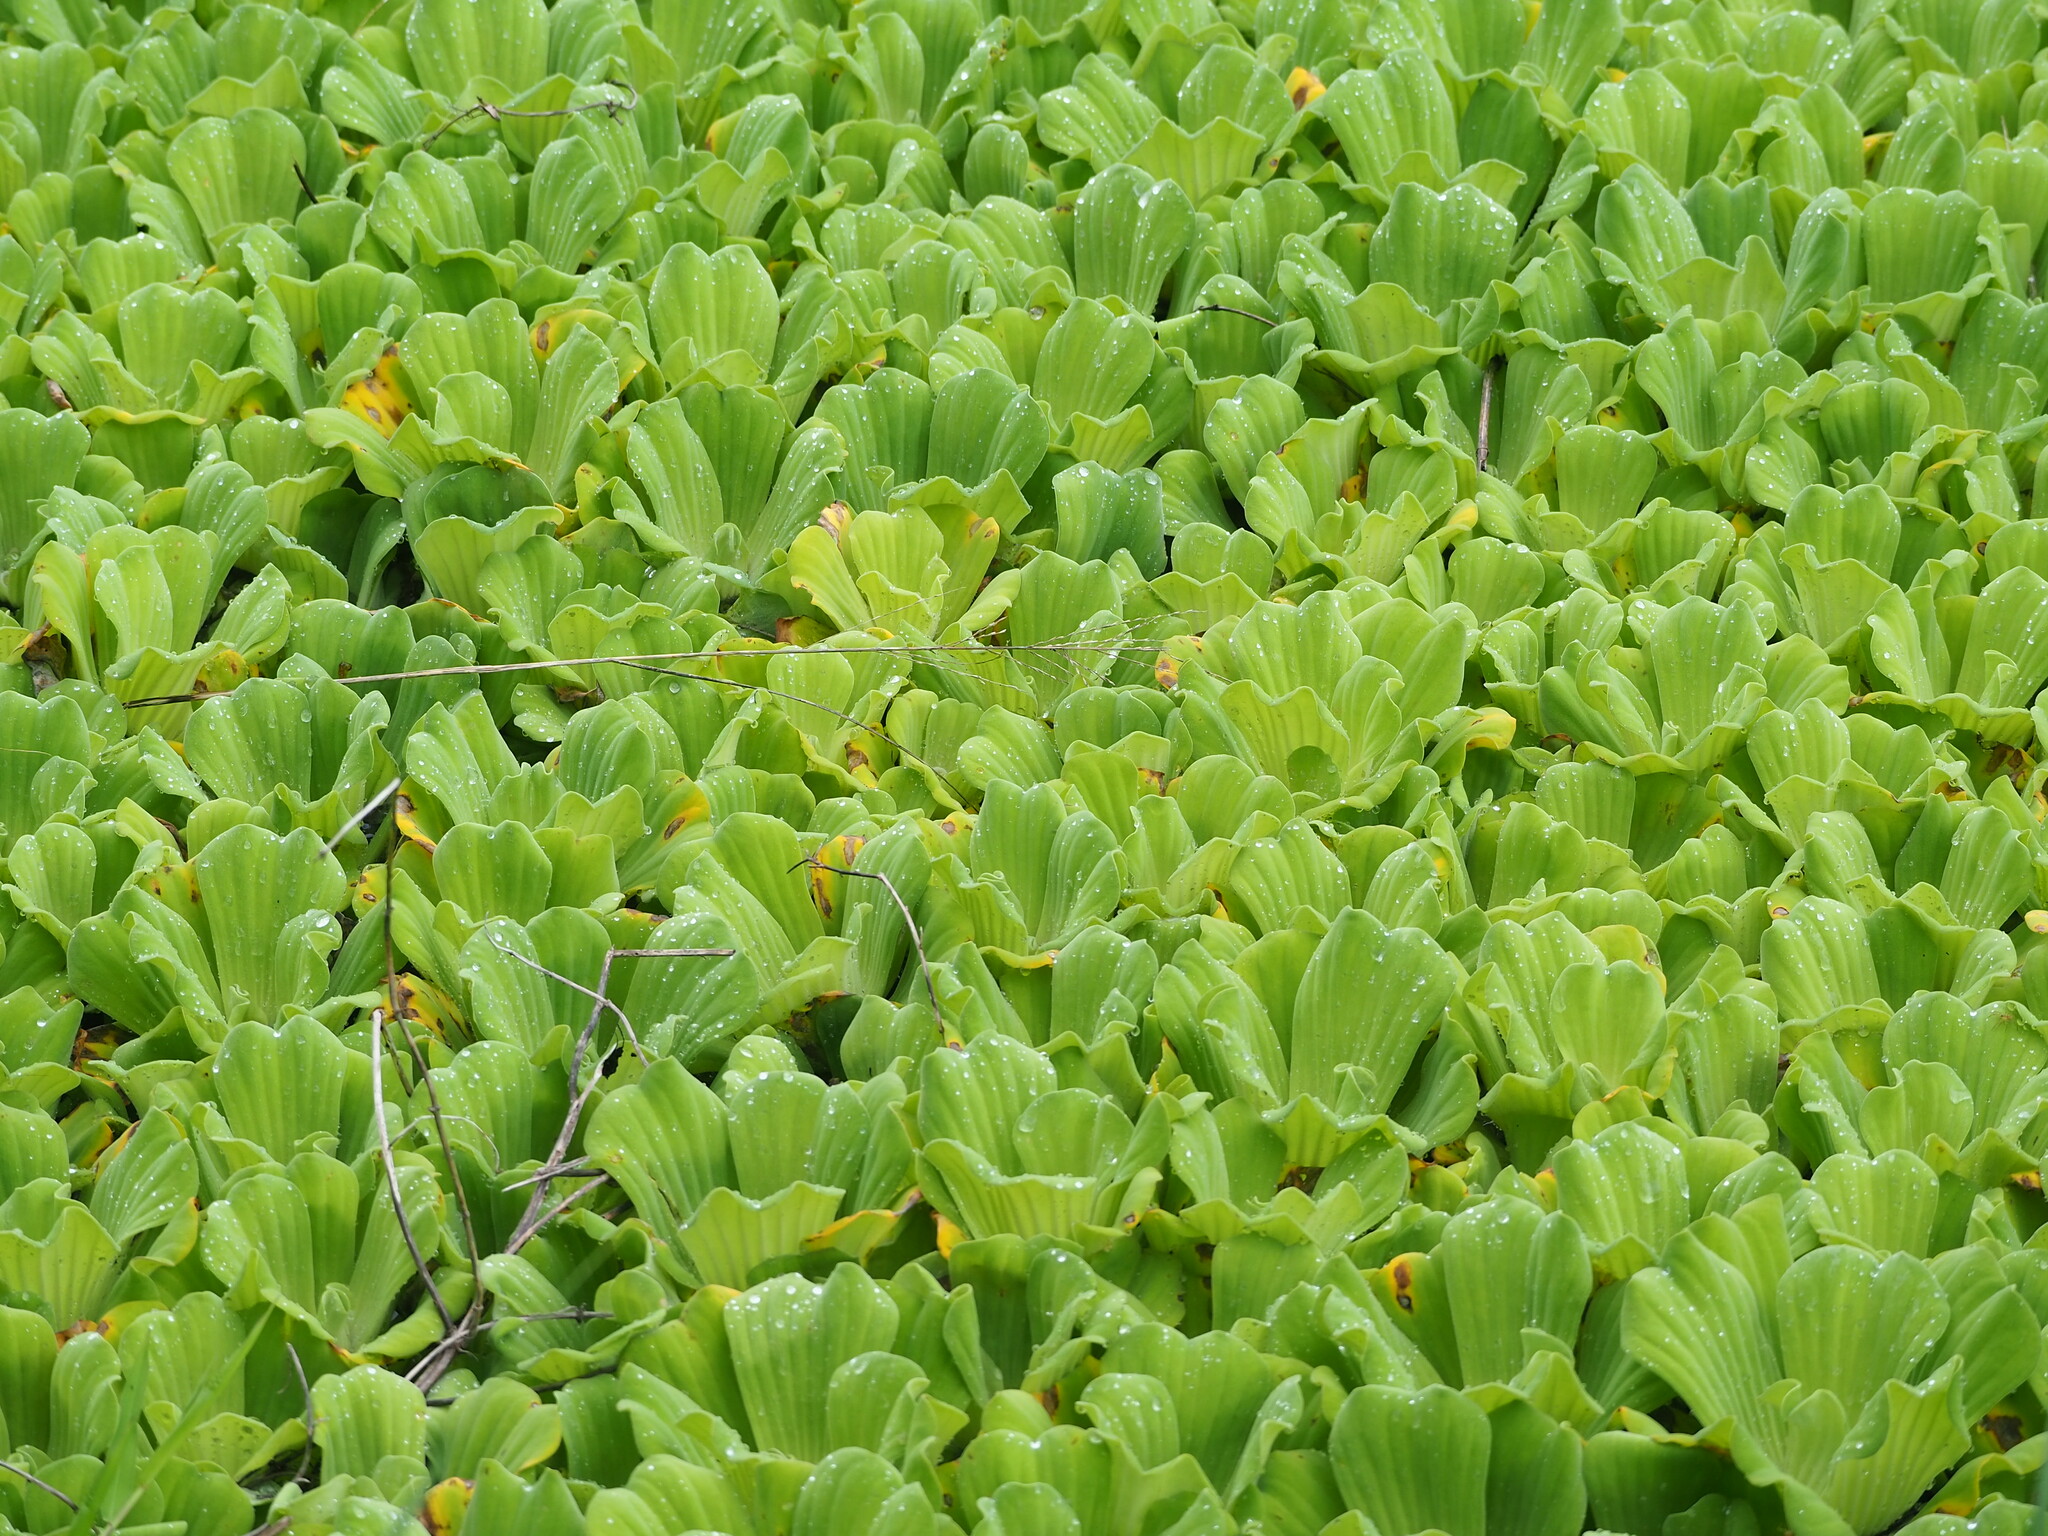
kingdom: Plantae
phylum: Tracheophyta
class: Liliopsida
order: Alismatales
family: Araceae
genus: Pistia
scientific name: Pistia stratiotes
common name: Water lettuce
